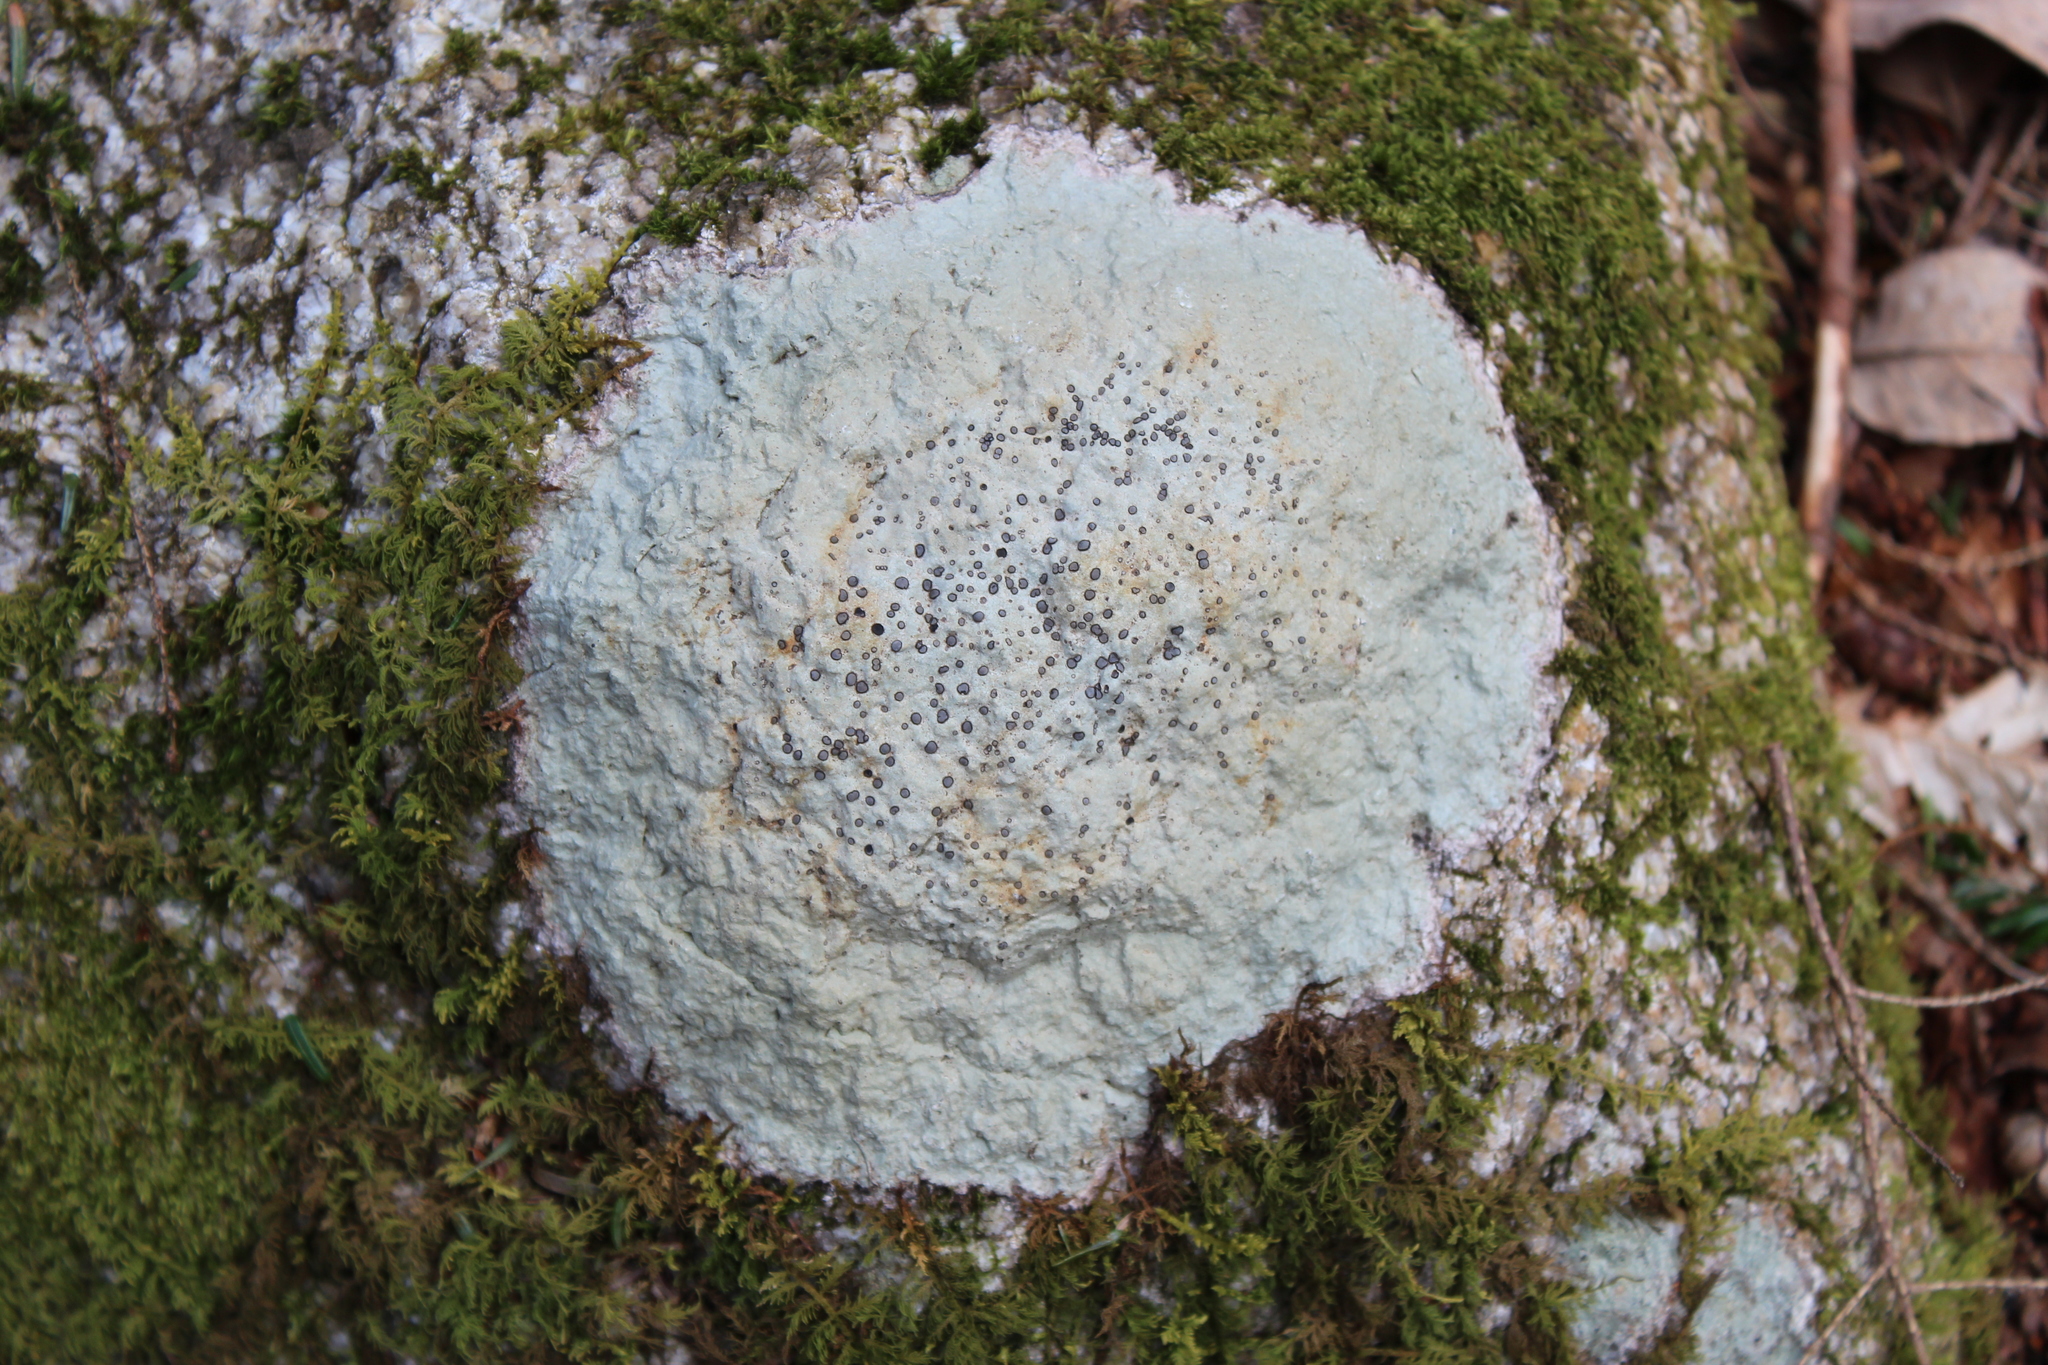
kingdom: Fungi
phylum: Ascomycota
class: Lecanoromycetes
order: Lecideales
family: Lecideaceae
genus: Porpidia
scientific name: Porpidia albocaerulescens
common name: Smokey-eyed boulder lichen
